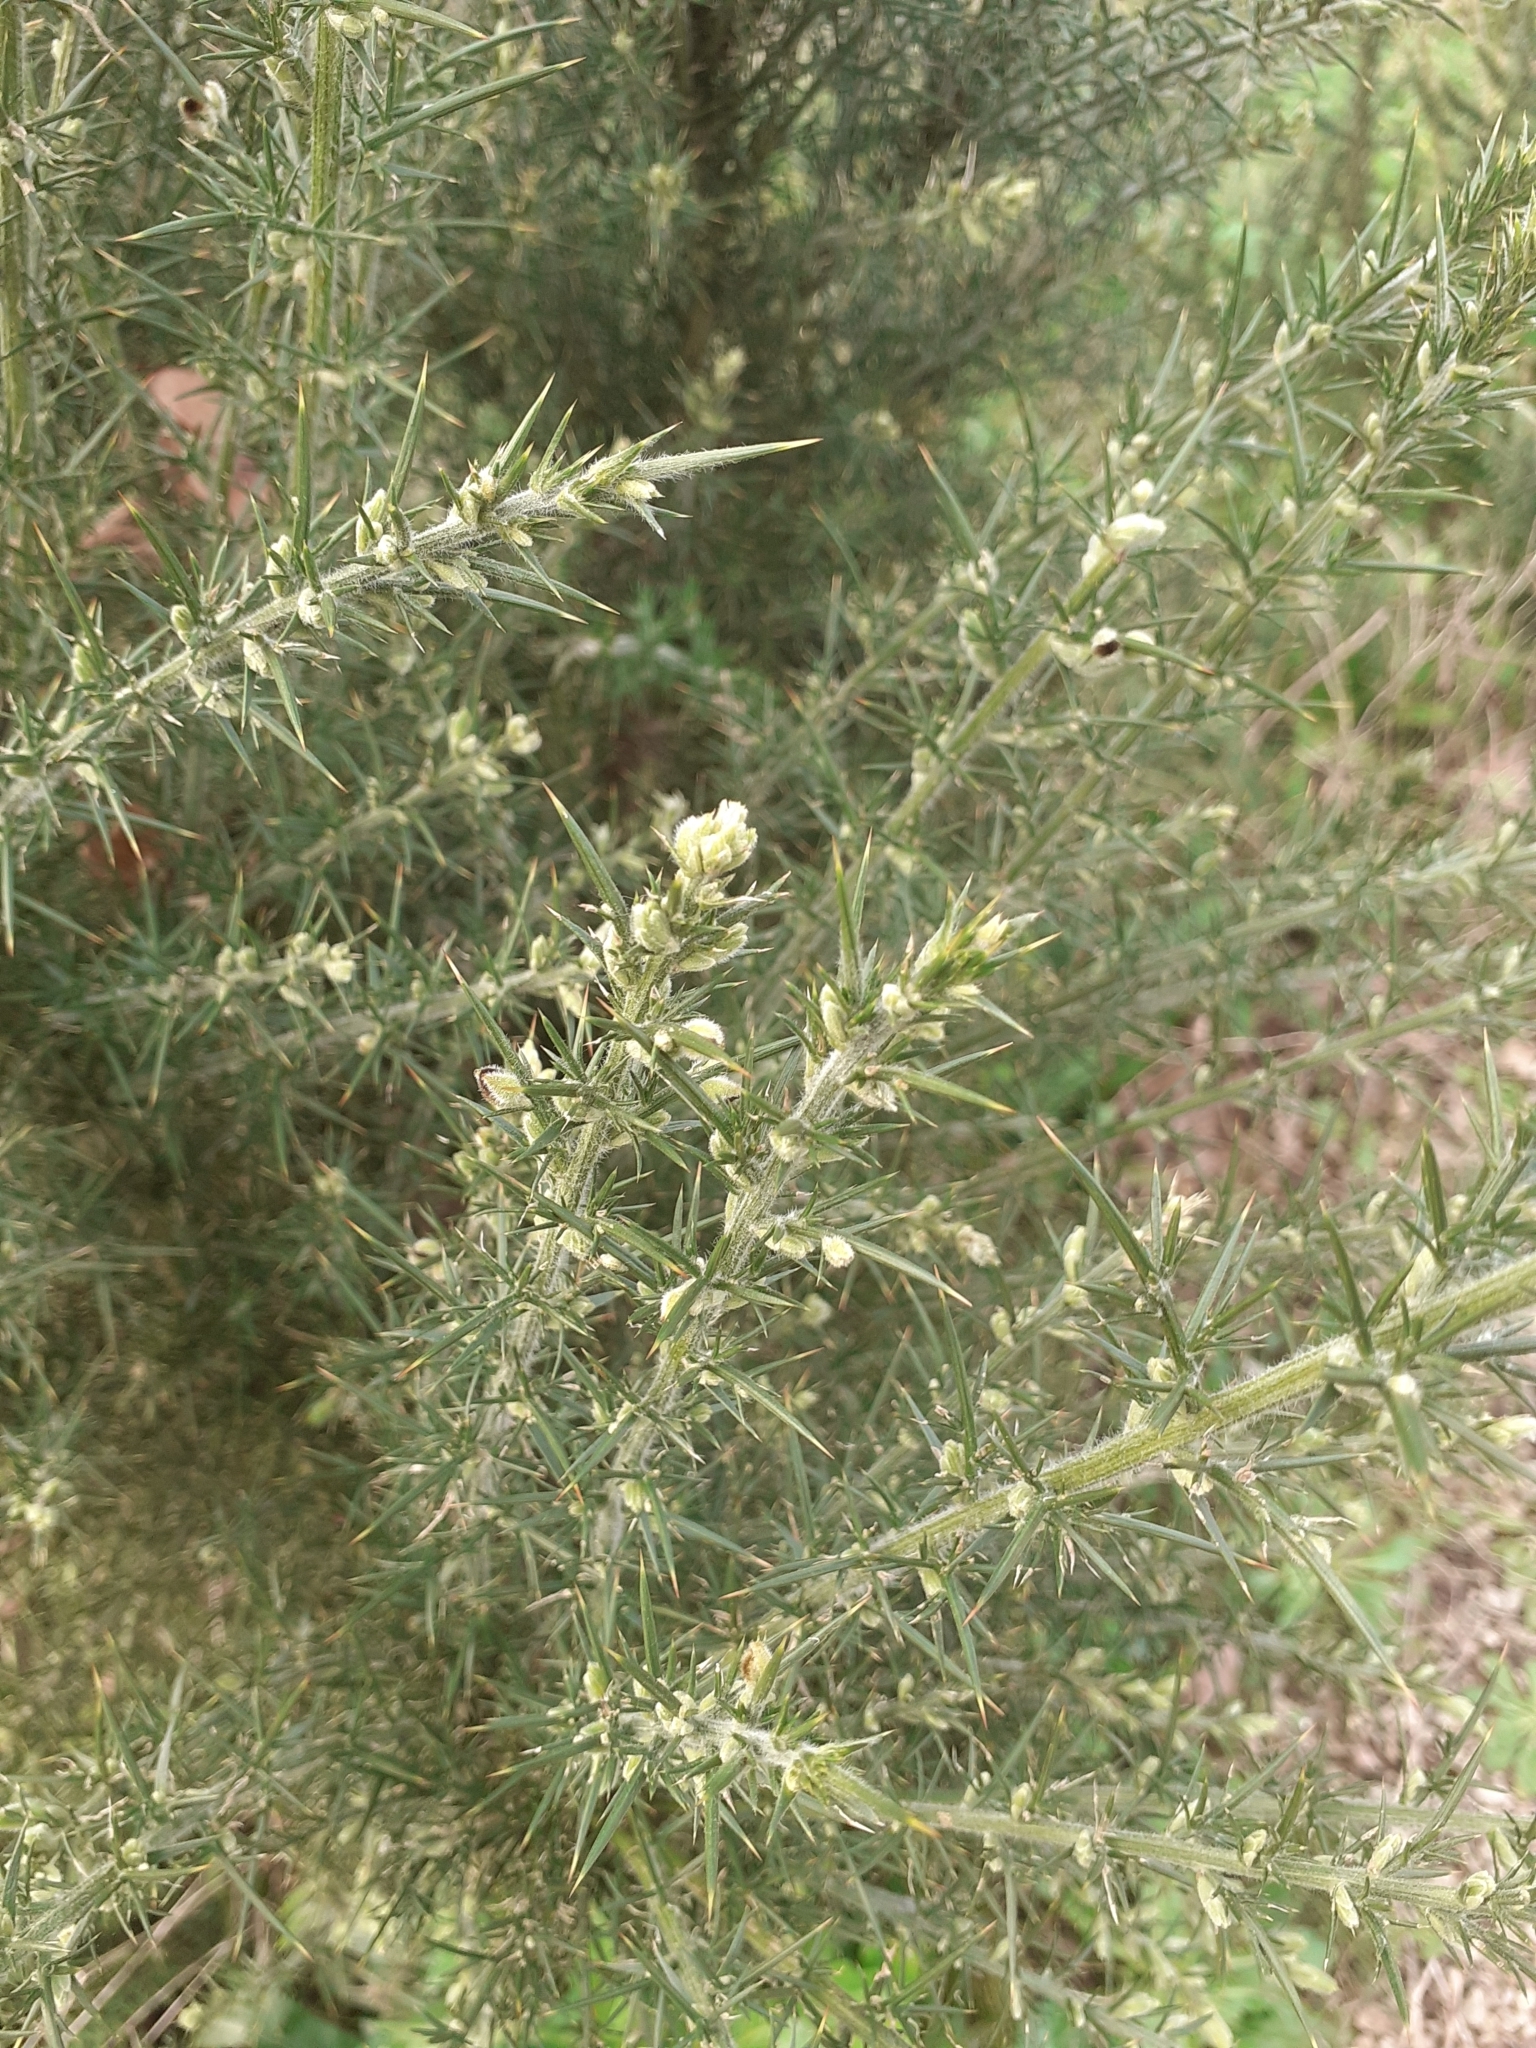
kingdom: Plantae
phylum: Tracheophyta
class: Magnoliopsida
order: Fabales
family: Fabaceae
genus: Ulex
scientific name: Ulex europaeus
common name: Common gorse
